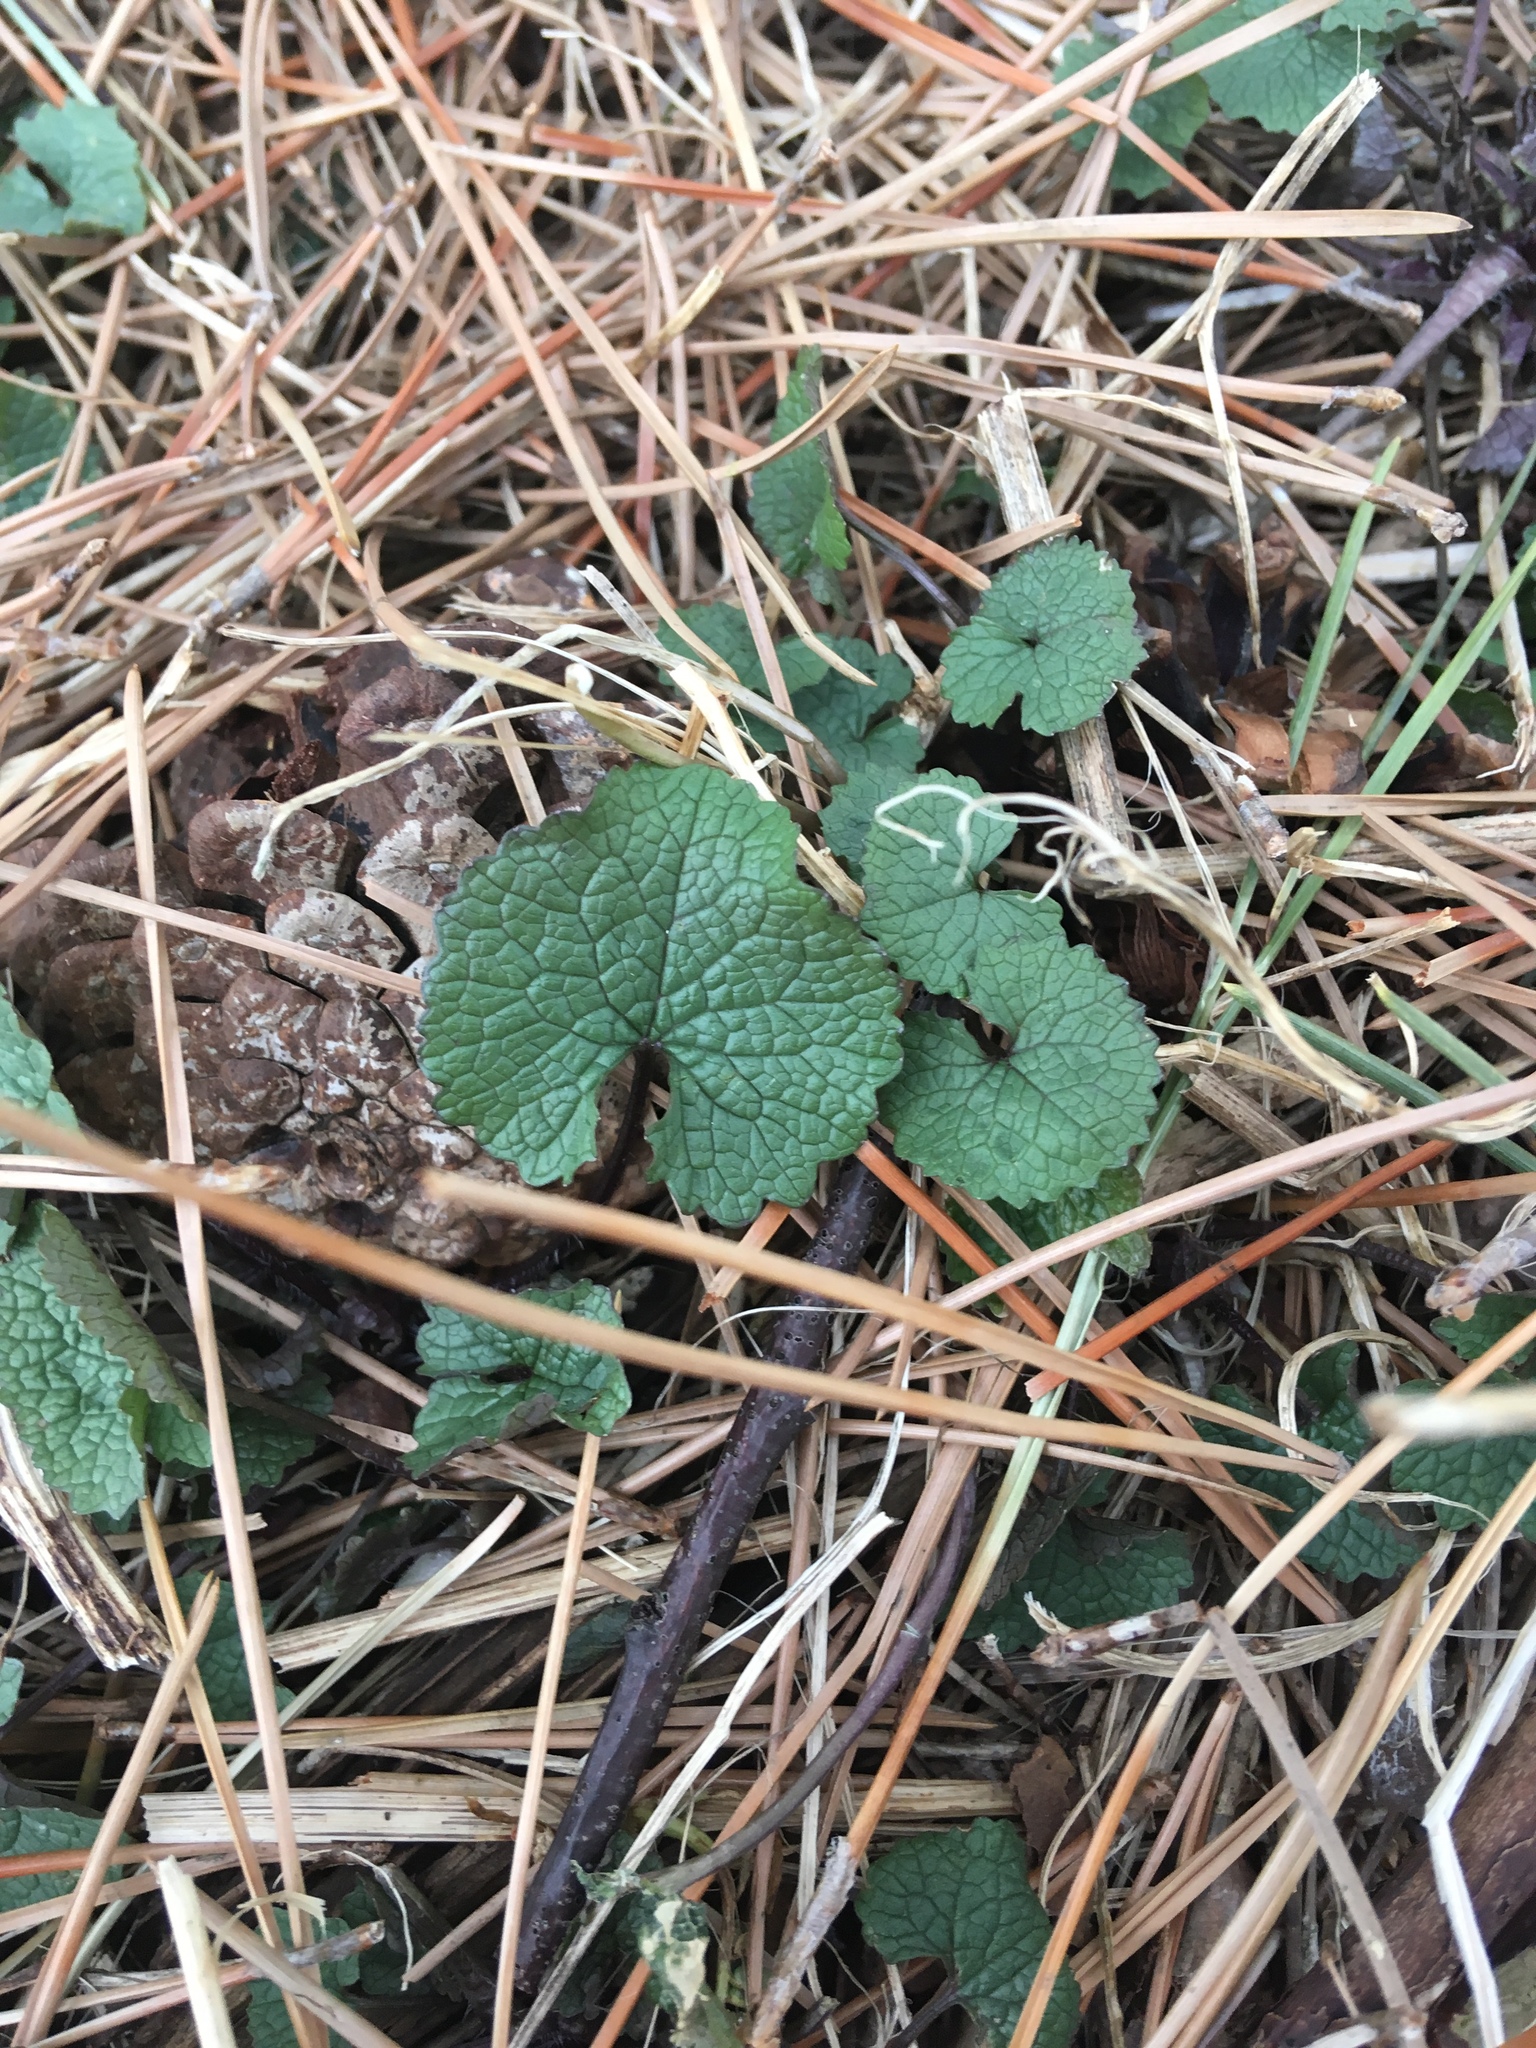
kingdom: Plantae
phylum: Tracheophyta
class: Magnoliopsida
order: Brassicales
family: Brassicaceae
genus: Alliaria
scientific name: Alliaria petiolata
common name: Garlic mustard
